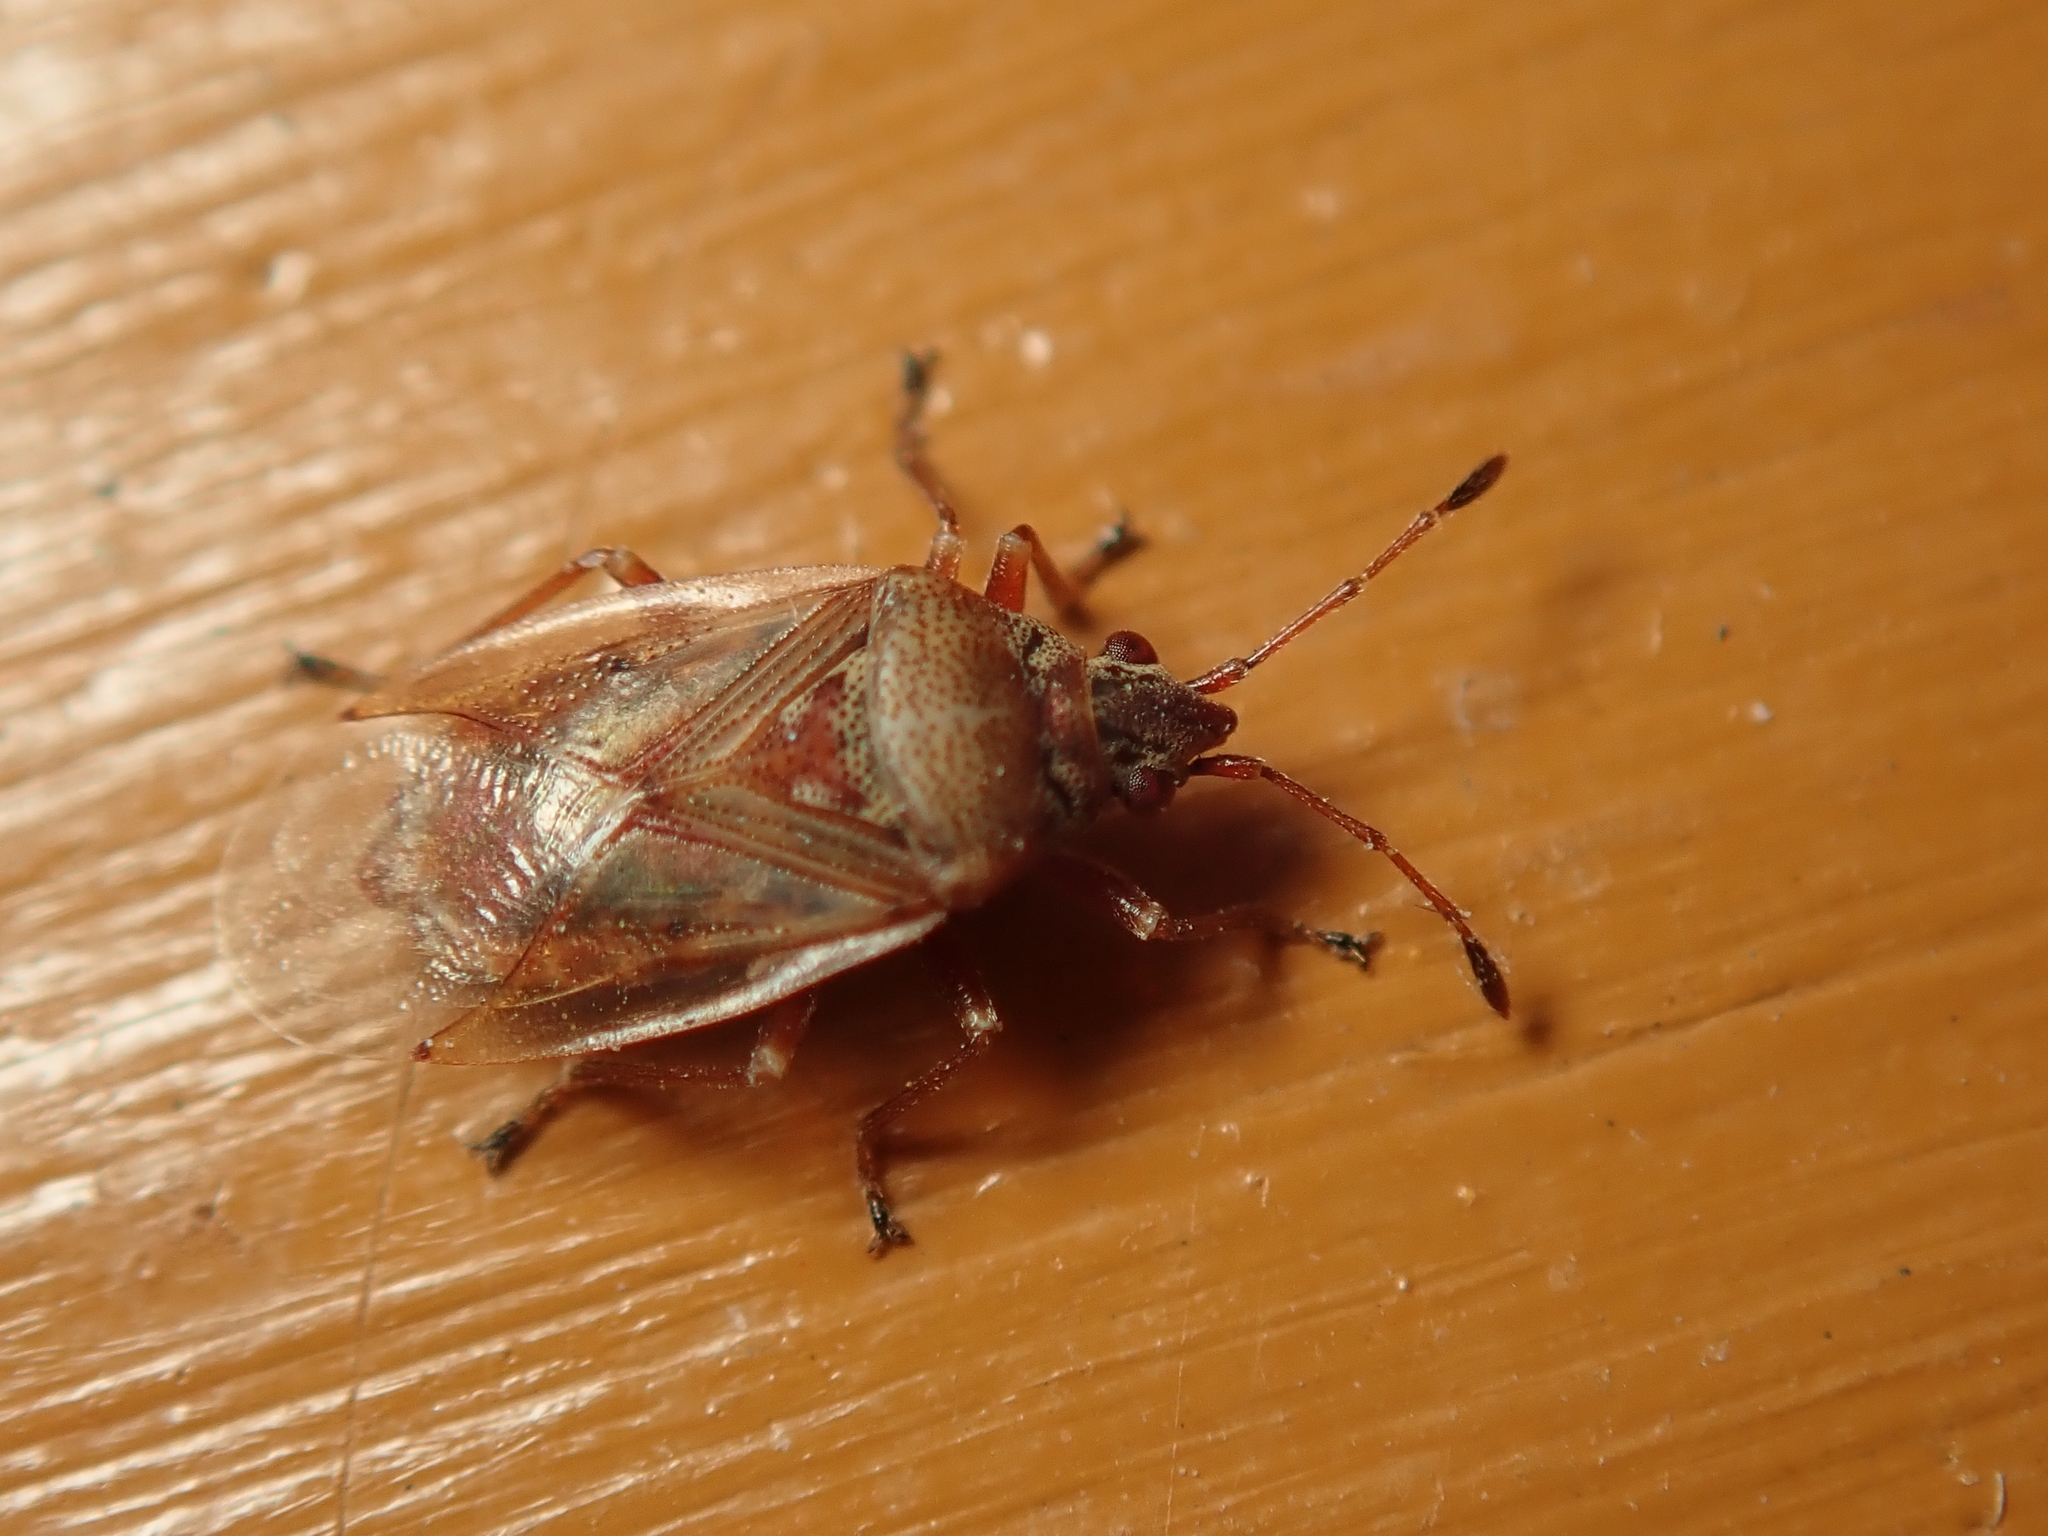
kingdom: Animalia
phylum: Arthropoda
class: Insecta
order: Hemiptera
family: Lygaeidae
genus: Kleidocerys
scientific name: Kleidocerys resedae
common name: Birch catkin bug
